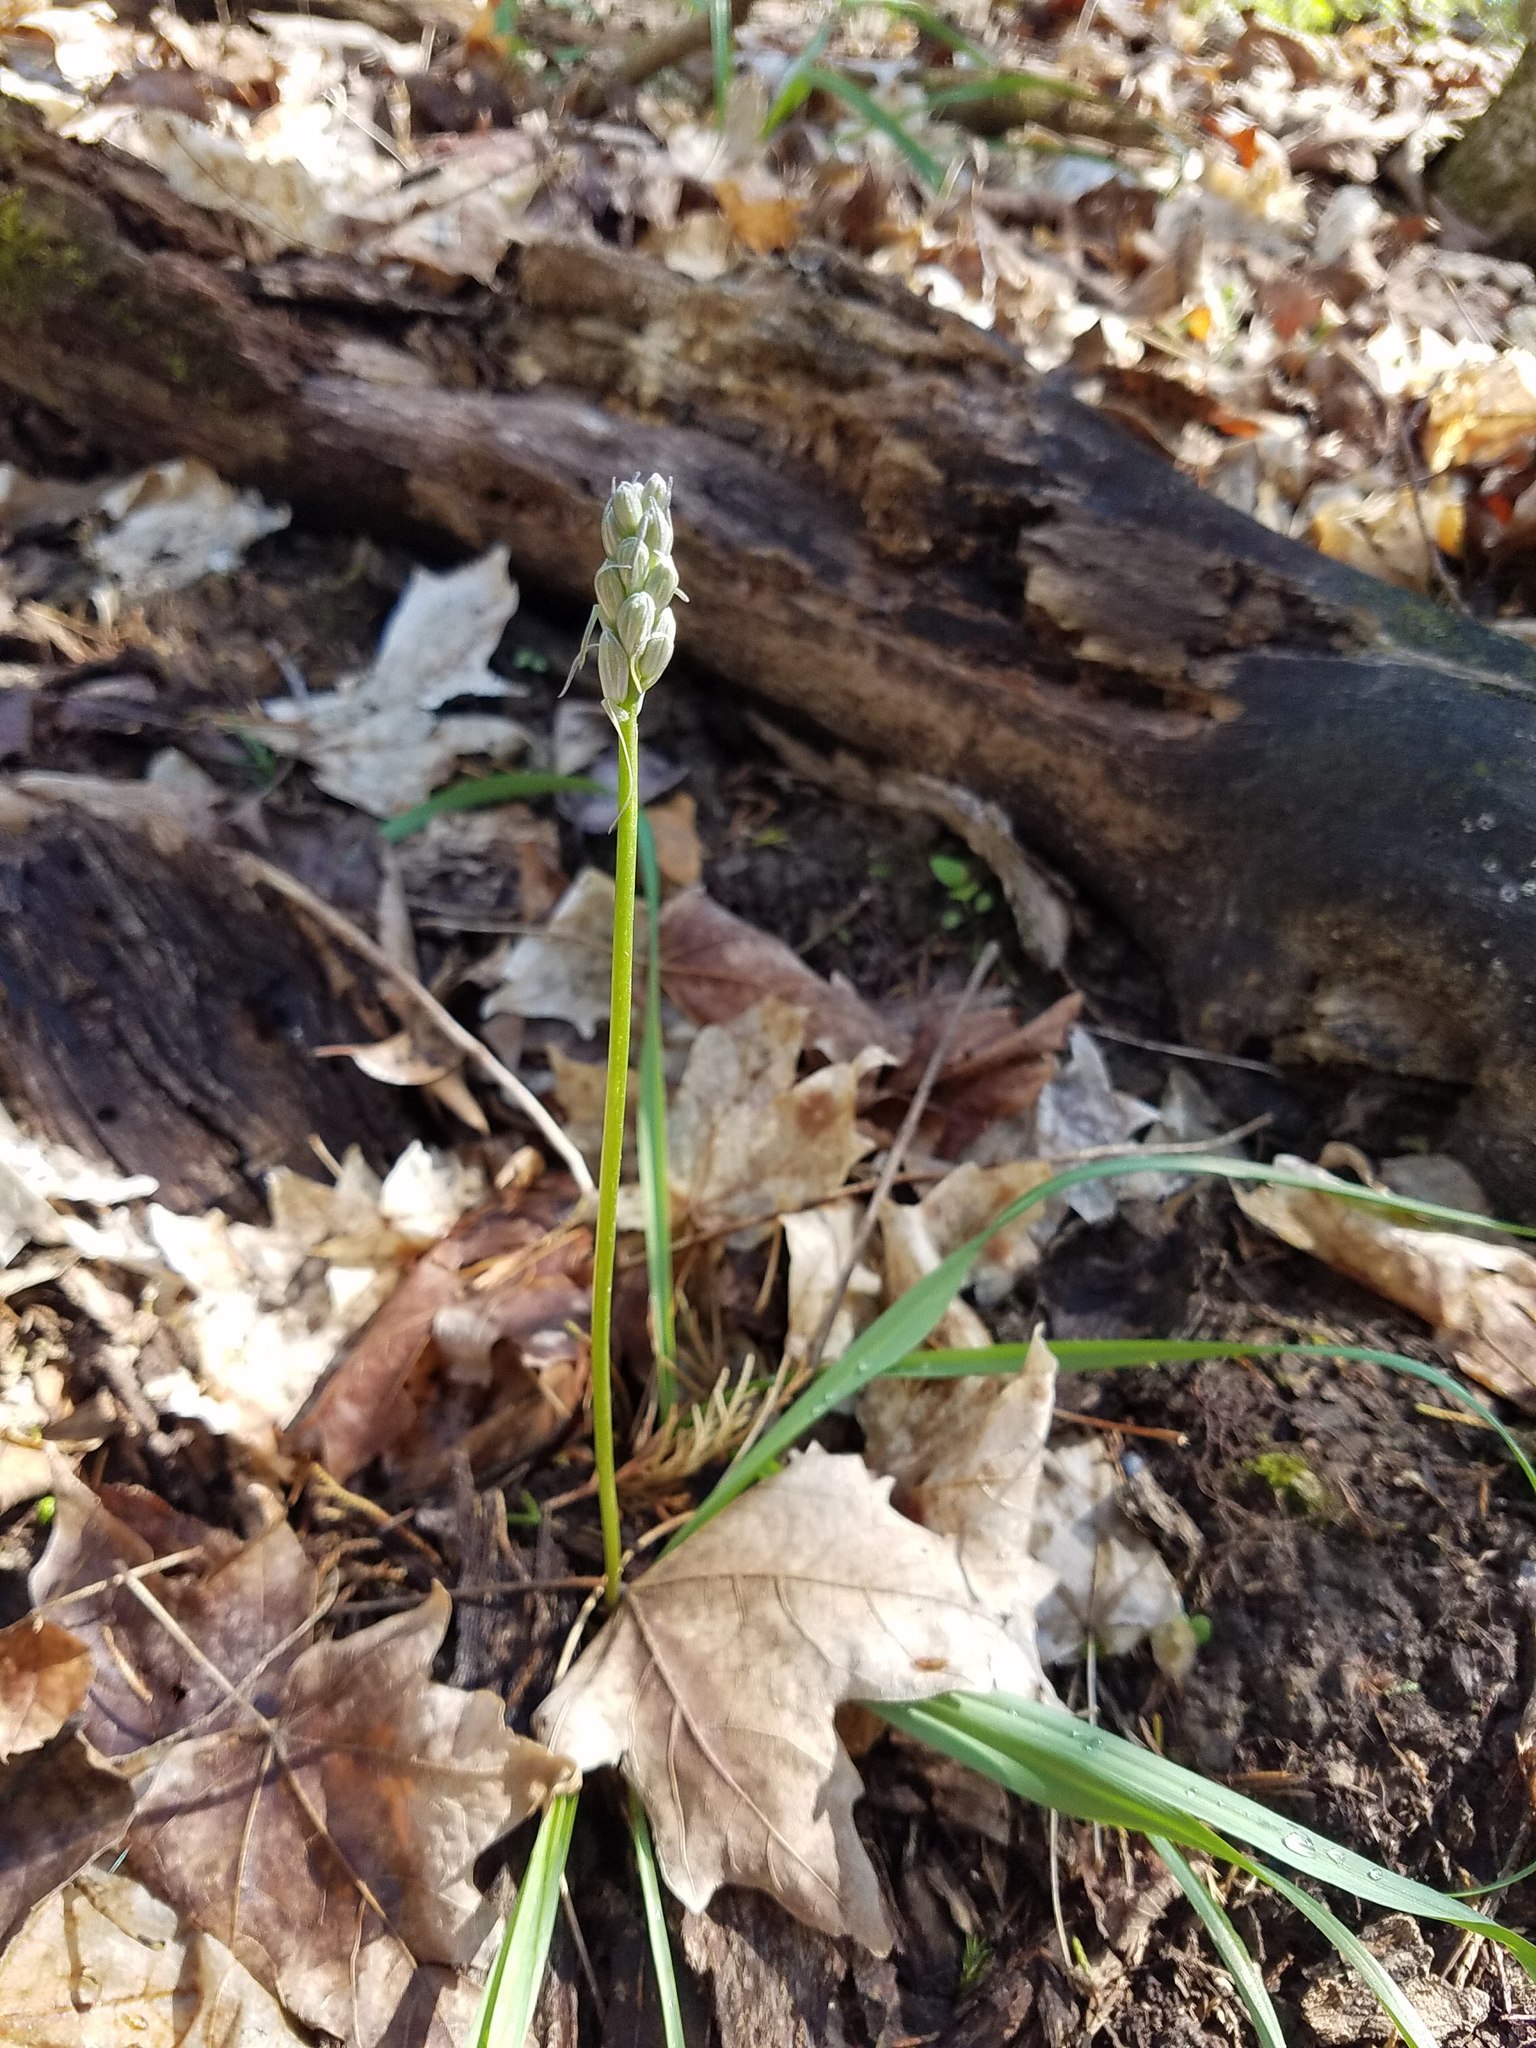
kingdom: Plantae
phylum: Tracheophyta
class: Liliopsida
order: Asparagales
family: Asparagaceae
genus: Camassia
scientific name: Camassia scilloides
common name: Wild hyacinth
